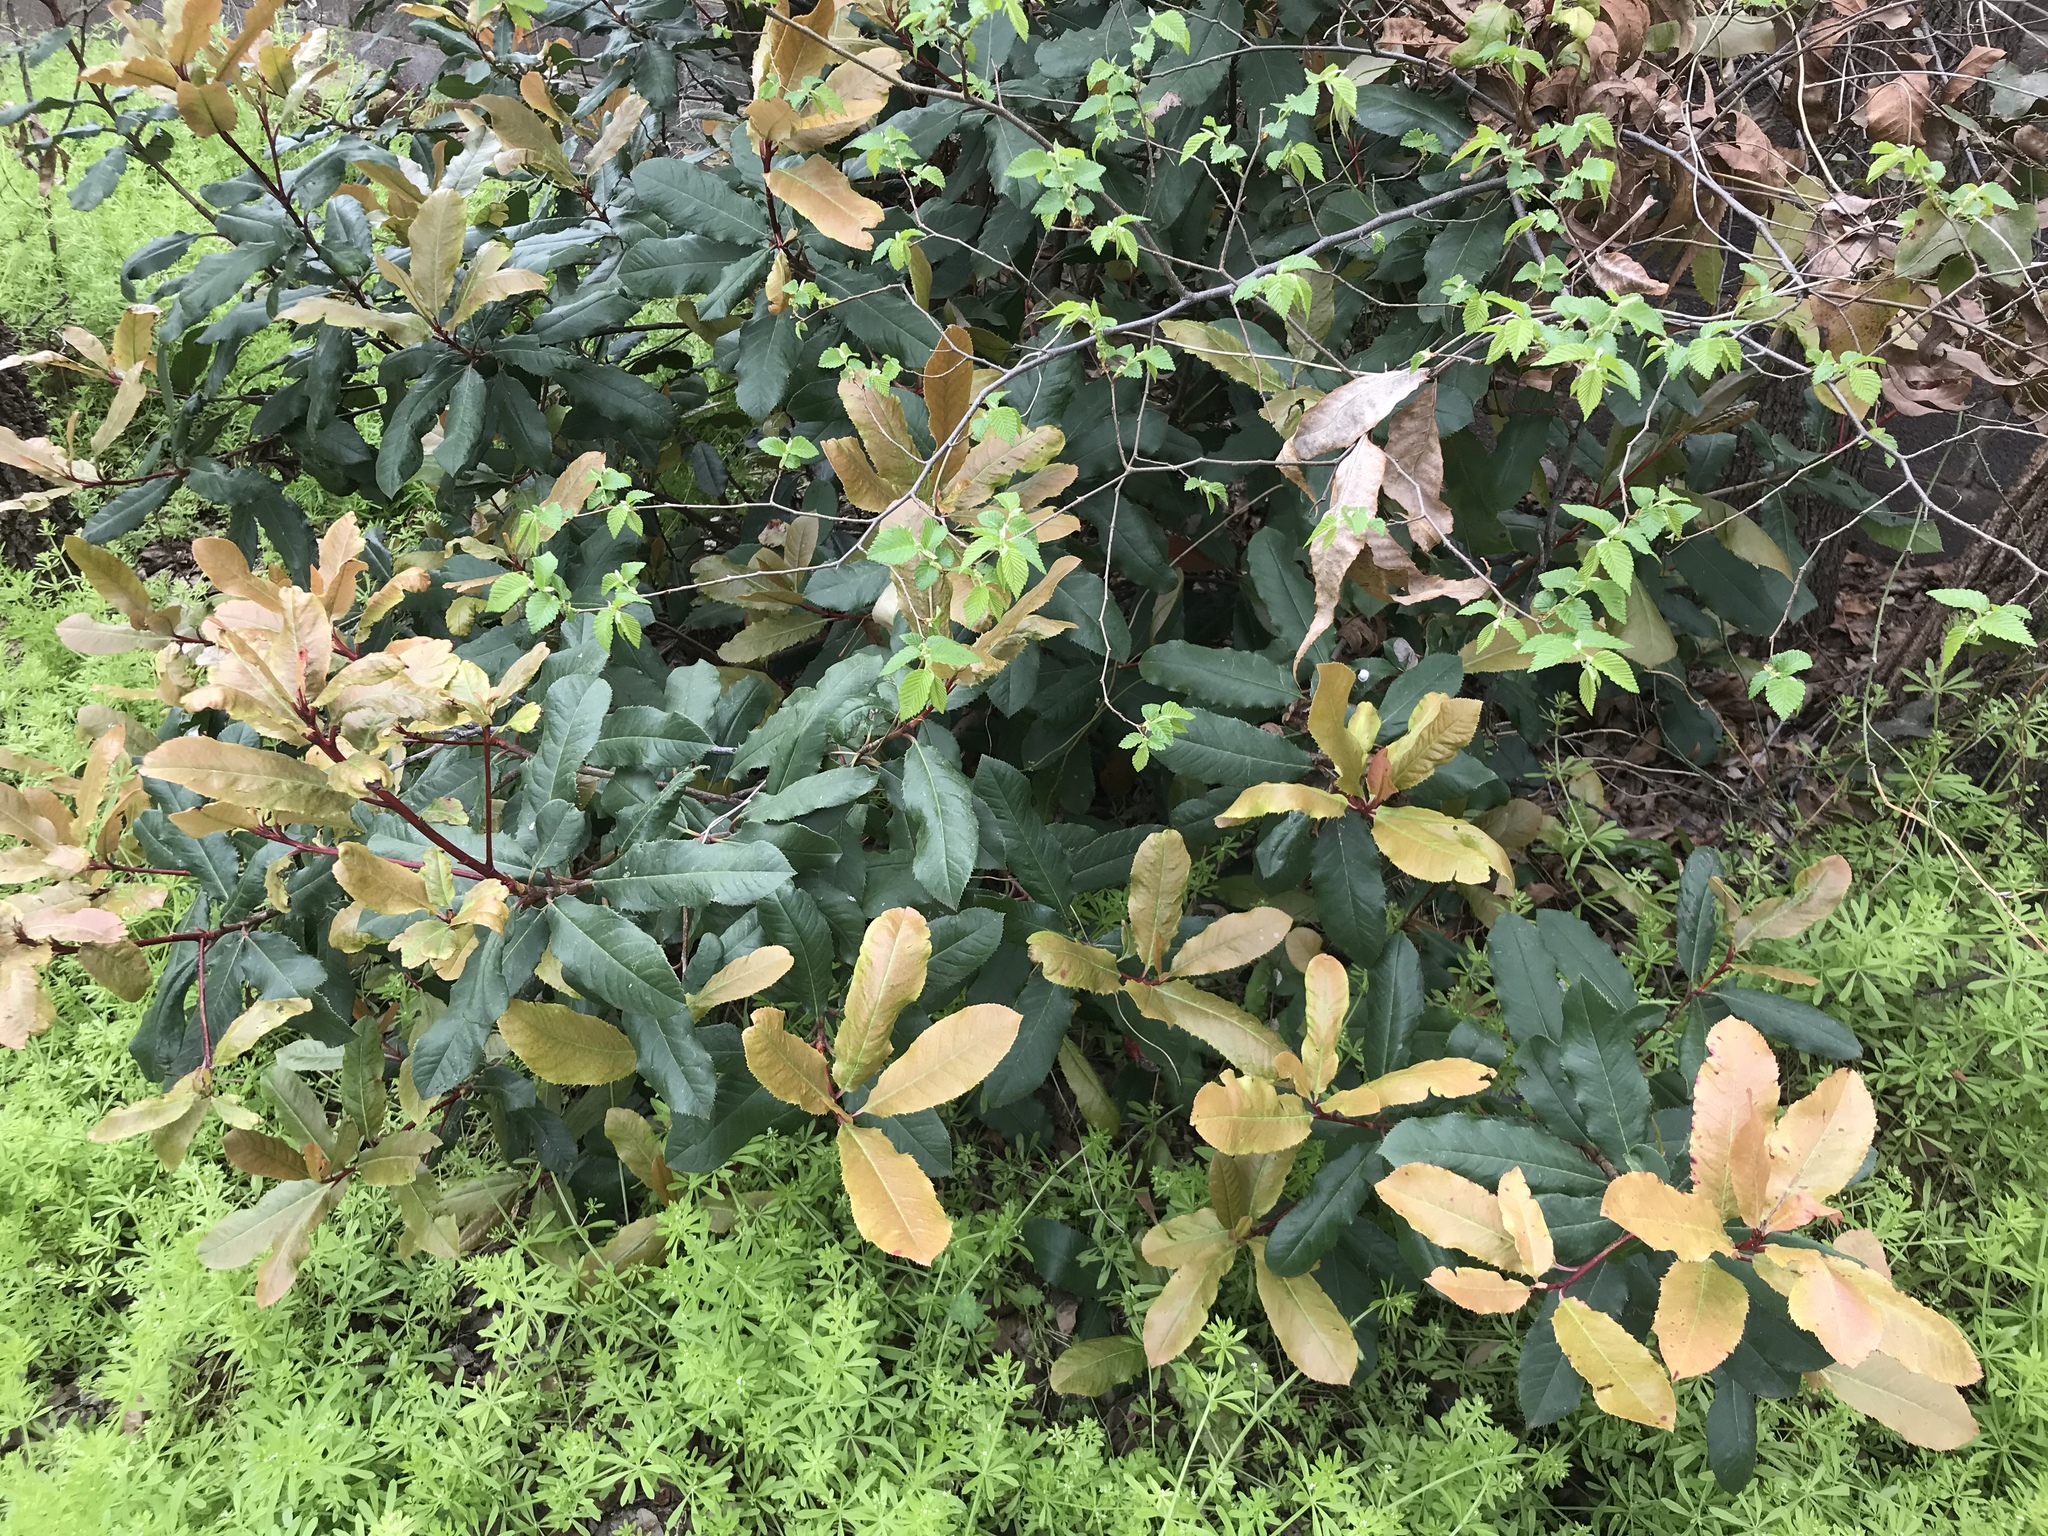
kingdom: Plantae
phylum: Tracheophyta
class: Magnoliopsida
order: Rosales
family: Rosaceae
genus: Photinia
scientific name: Photinia serratifolia
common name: Taiwanese photinia
